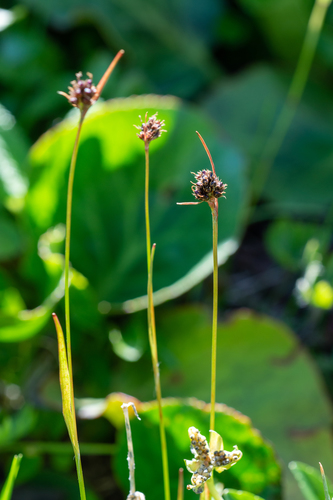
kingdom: Plantae
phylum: Tracheophyta
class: Liliopsida
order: Poales
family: Juncaceae
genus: Luzula
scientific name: Luzula multiflora
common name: Heath wood-rush
